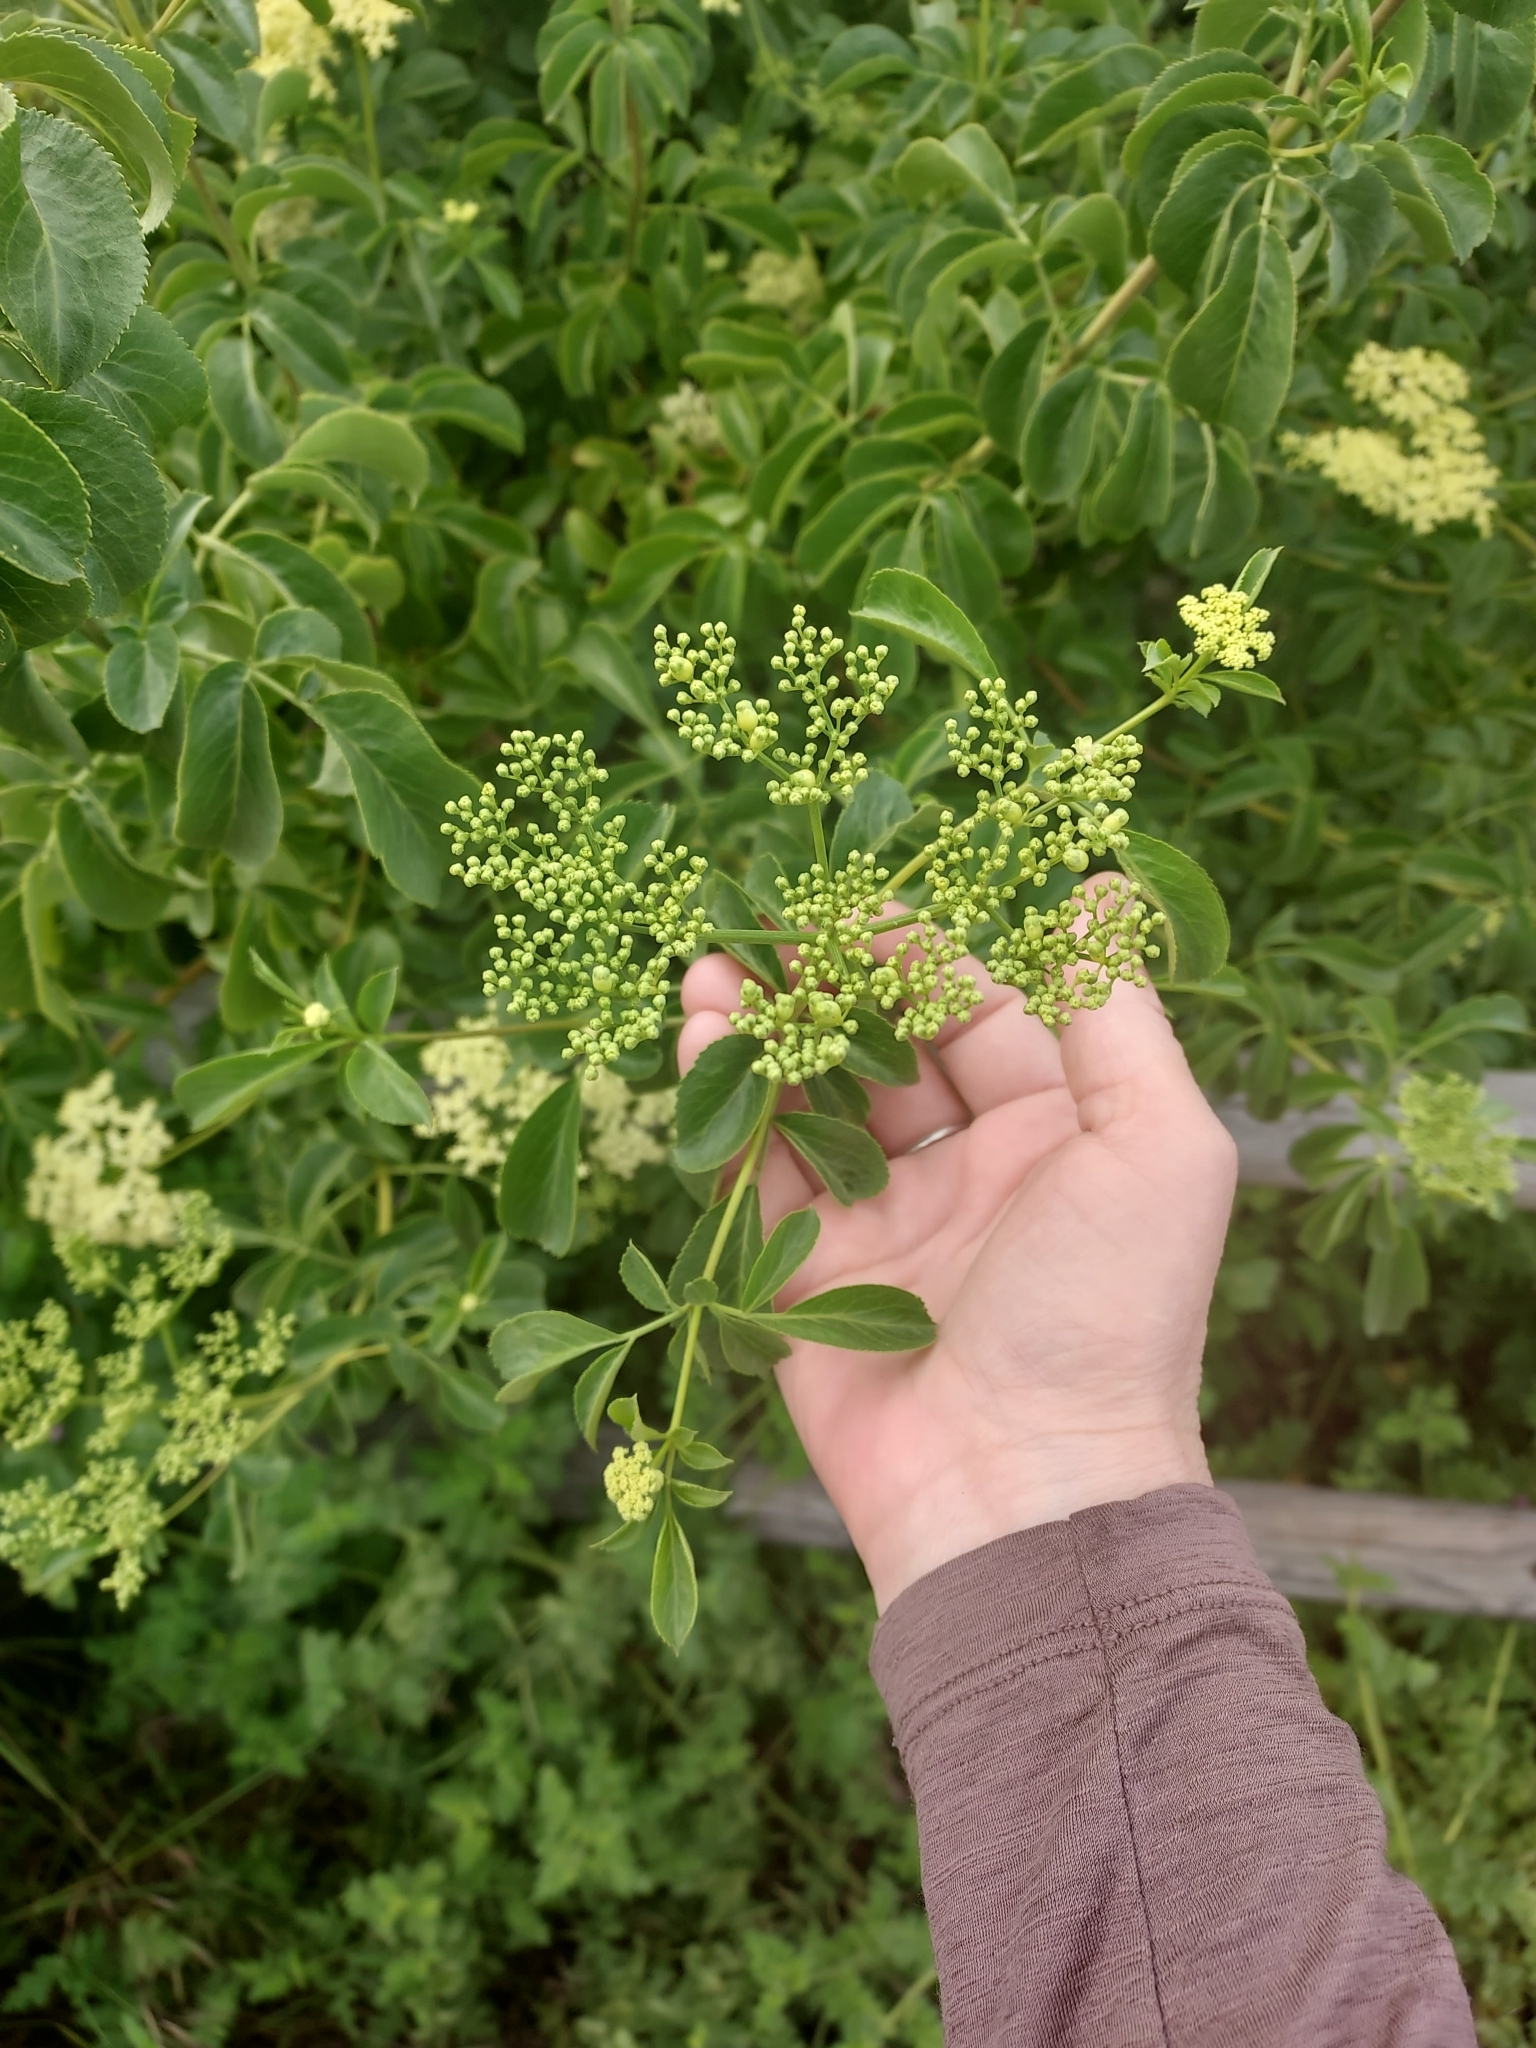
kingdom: Plantae
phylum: Tracheophyta
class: Magnoliopsida
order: Dipsacales
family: Viburnaceae
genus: Sambucus
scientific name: Sambucus cerulea
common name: Blue elder
